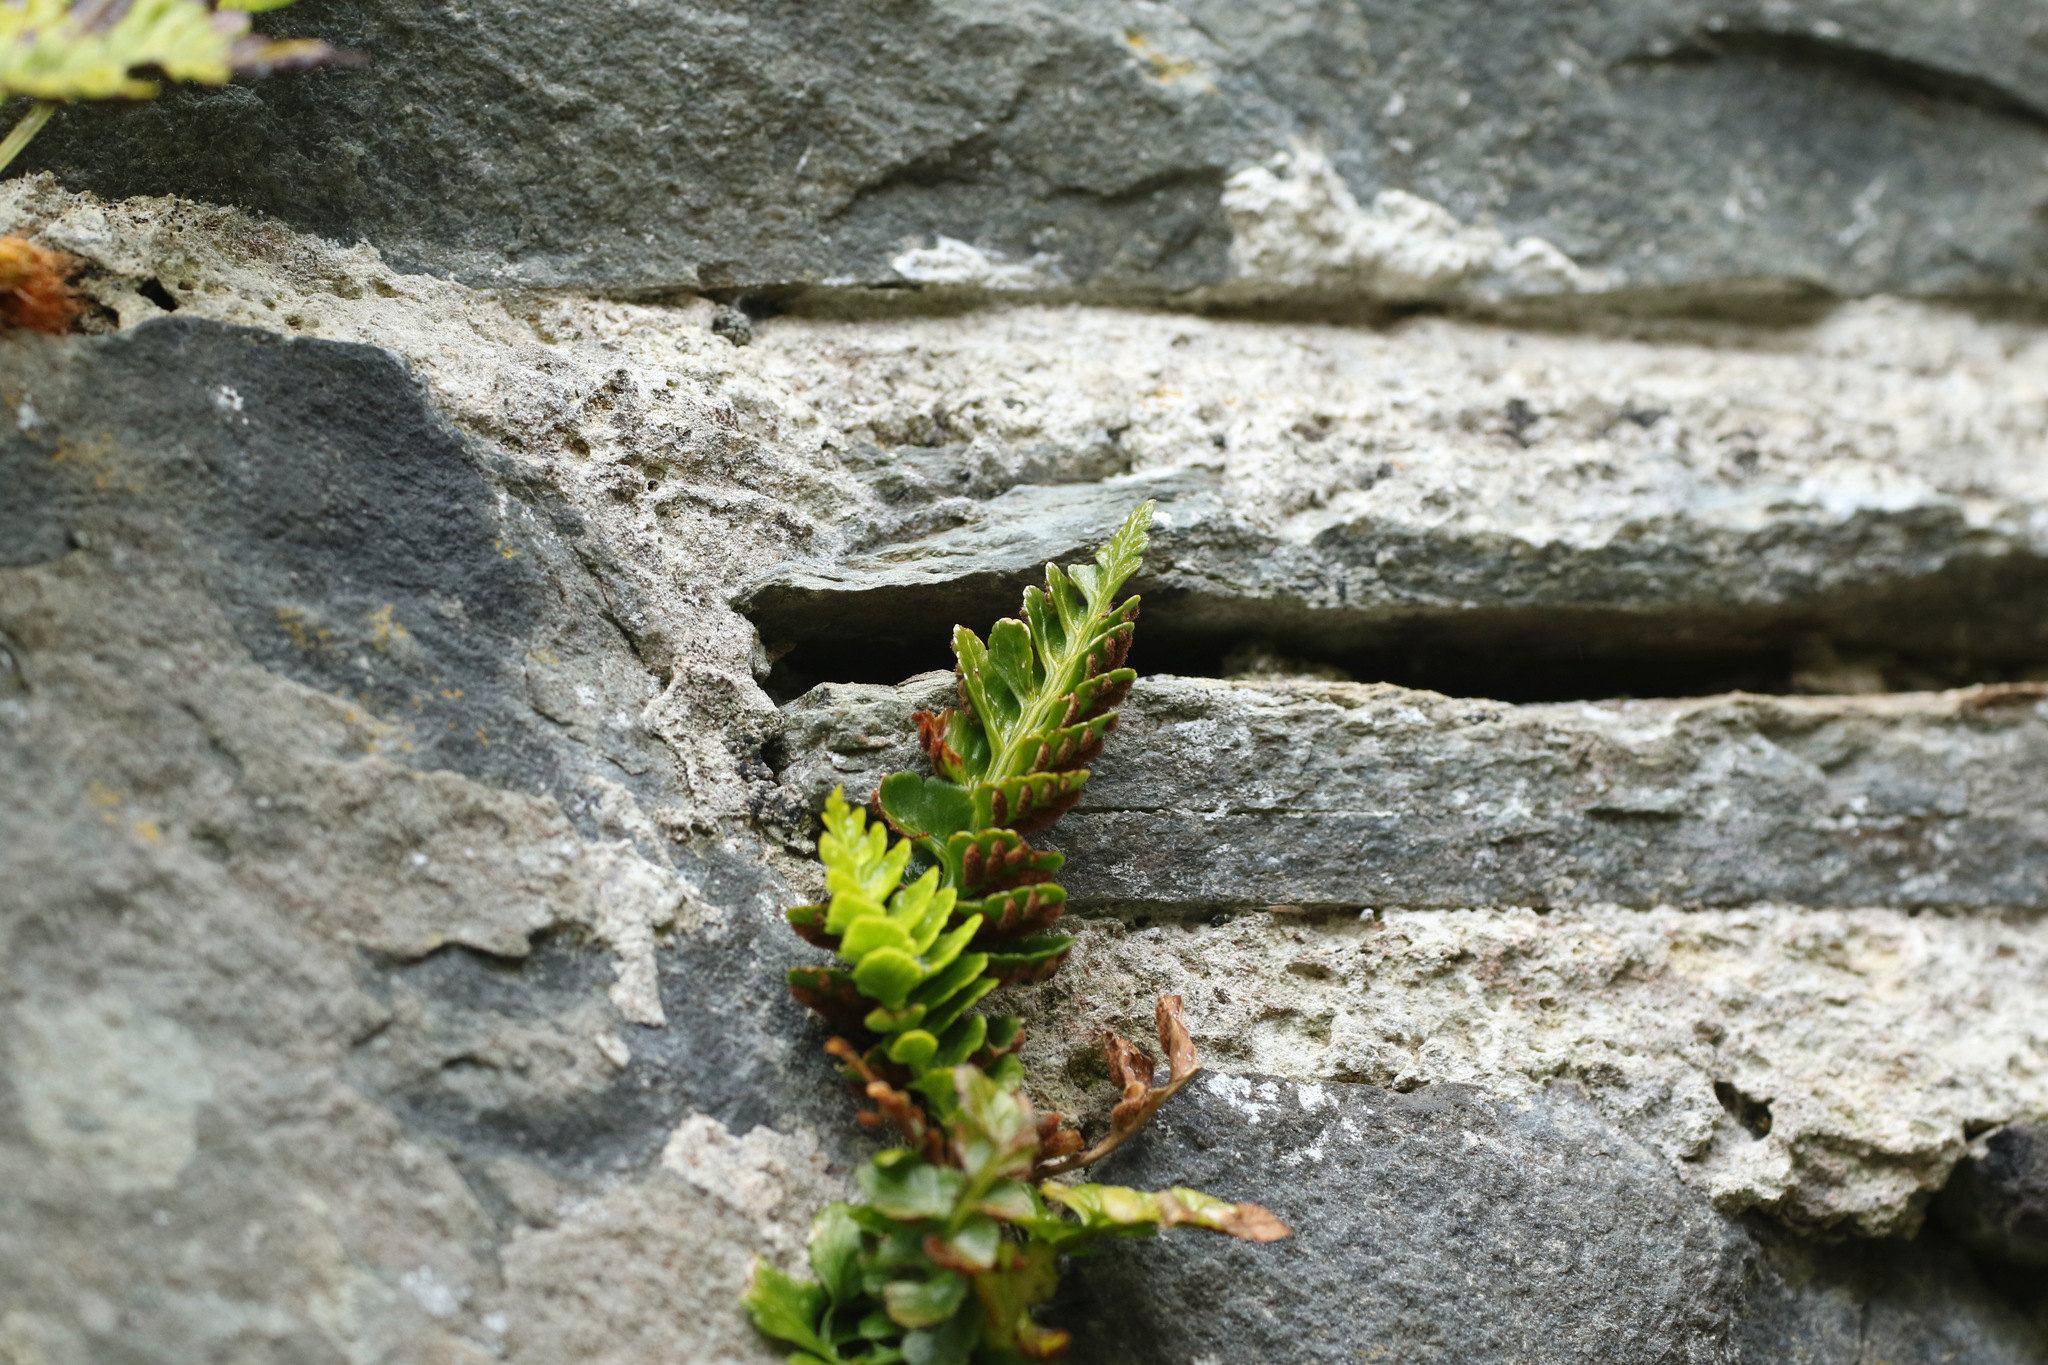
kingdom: Plantae
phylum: Tracheophyta
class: Polypodiopsida
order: Polypodiales
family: Aspleniaceae
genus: Asplenium
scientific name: Asplenium marinum
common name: Sea spleenwort
